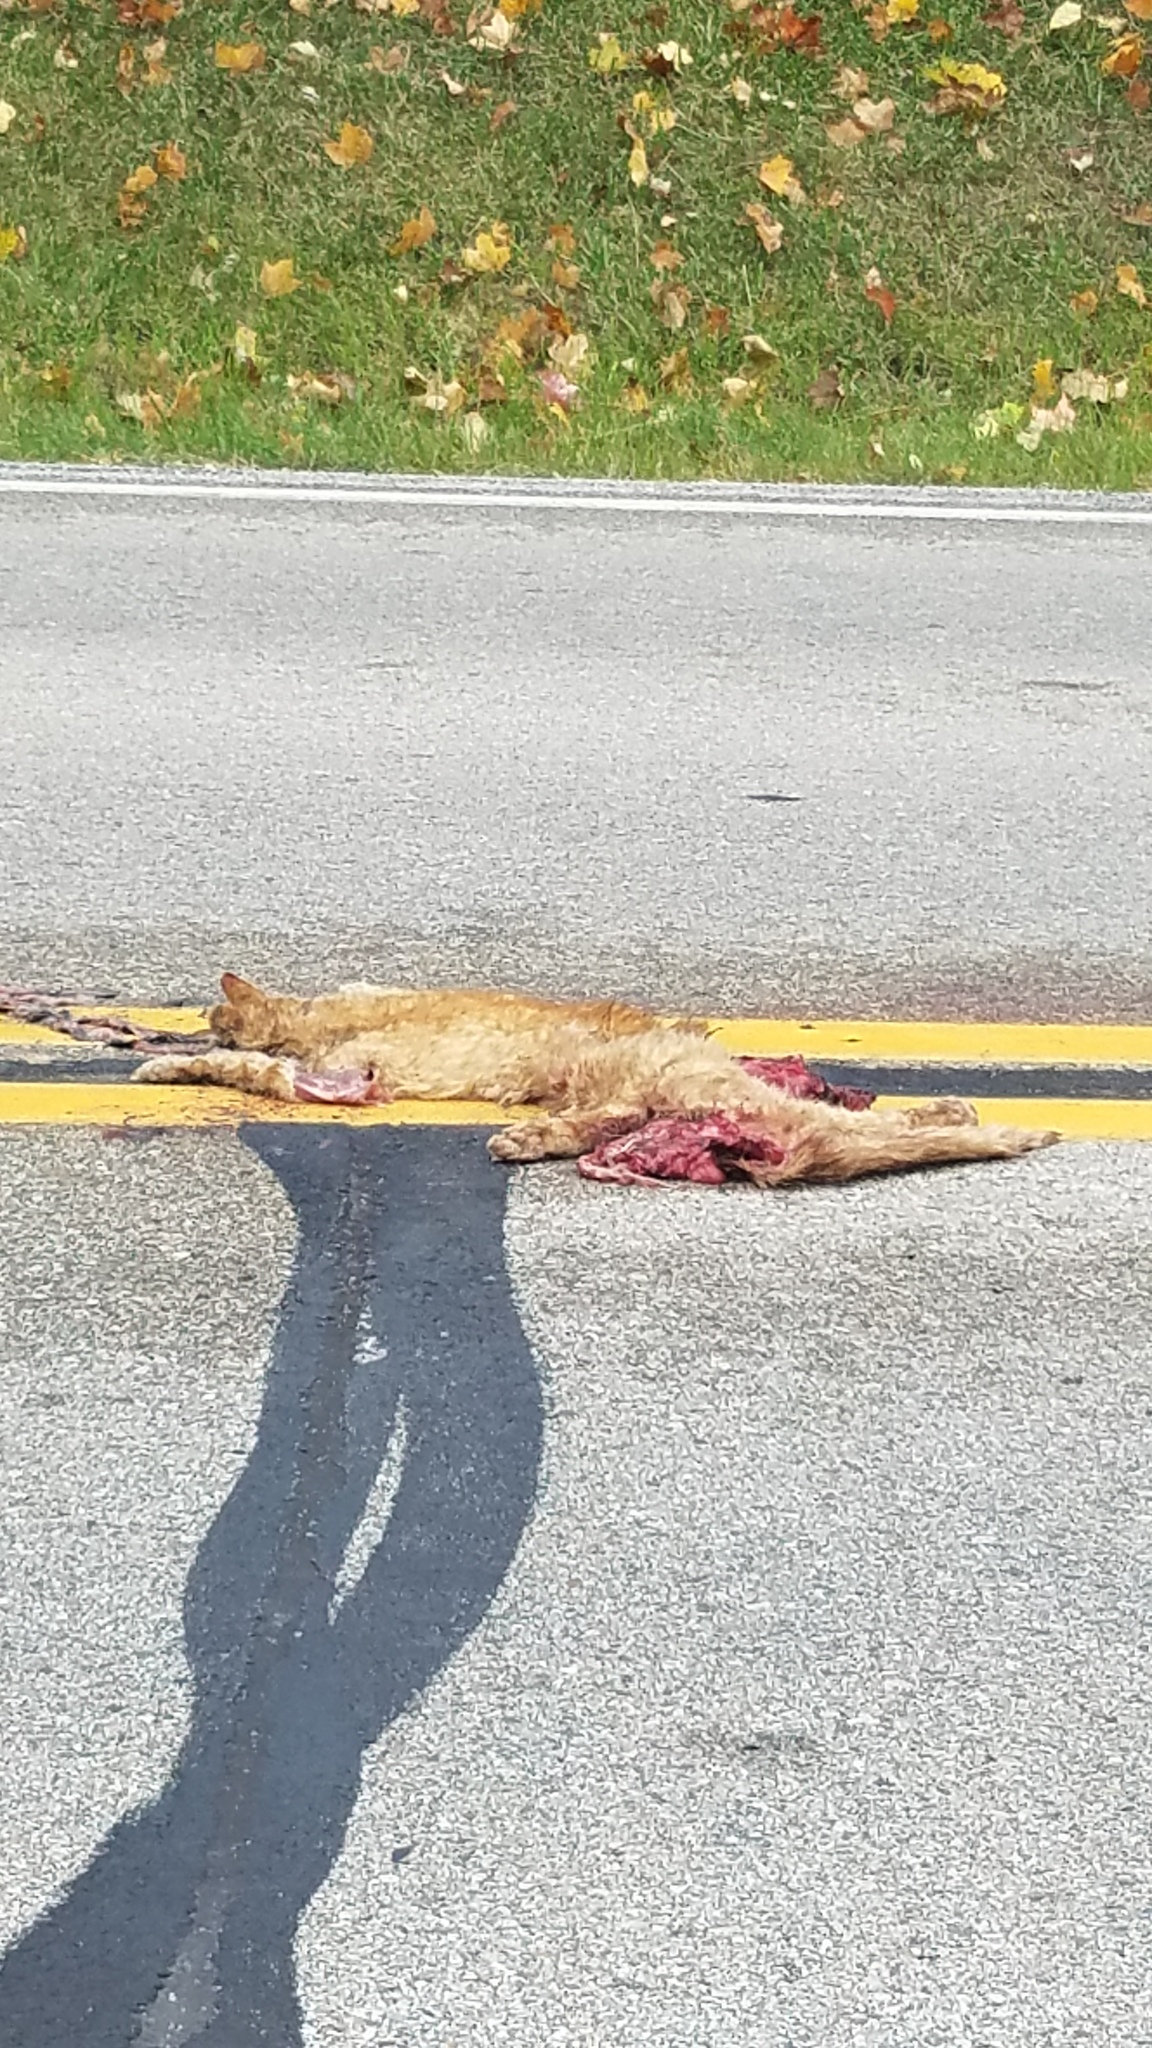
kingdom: Animalia
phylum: Chordata
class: Mammalia
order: Carnivora
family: Felidae
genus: Felis
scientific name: Felis catus
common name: Domestic cat
